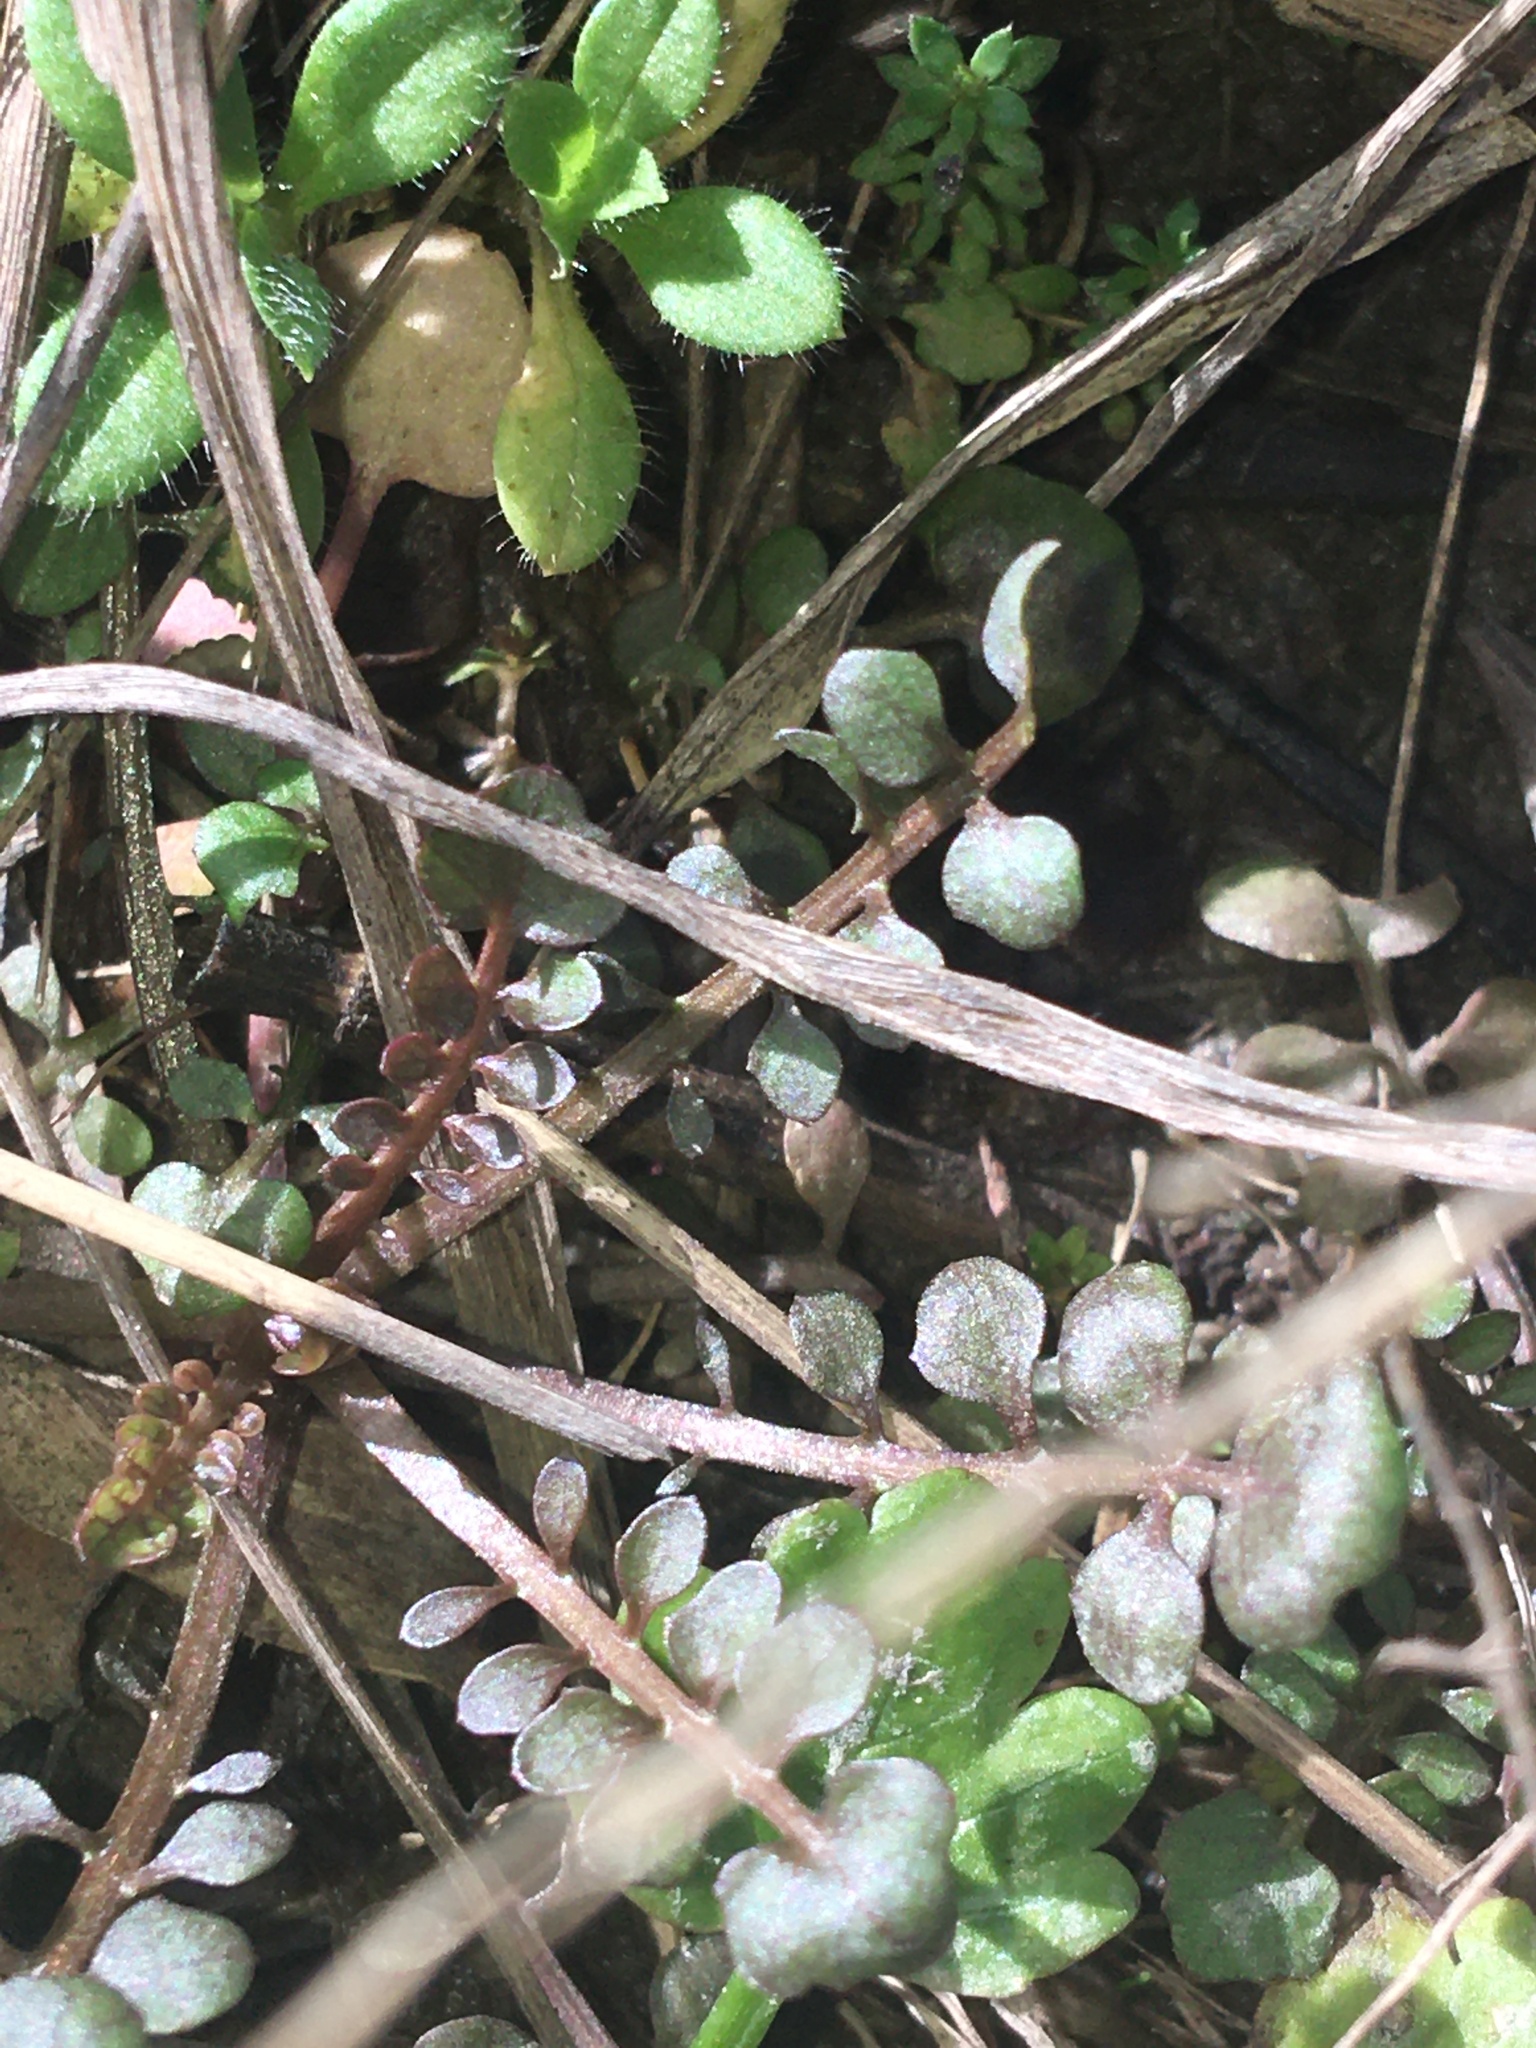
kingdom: Plantae
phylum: Tracheophyta
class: Magnoliopsida
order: Brassicales
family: Brassicaceae
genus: Cardamine
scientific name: Cardamine parviflora
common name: Sand bittercress
